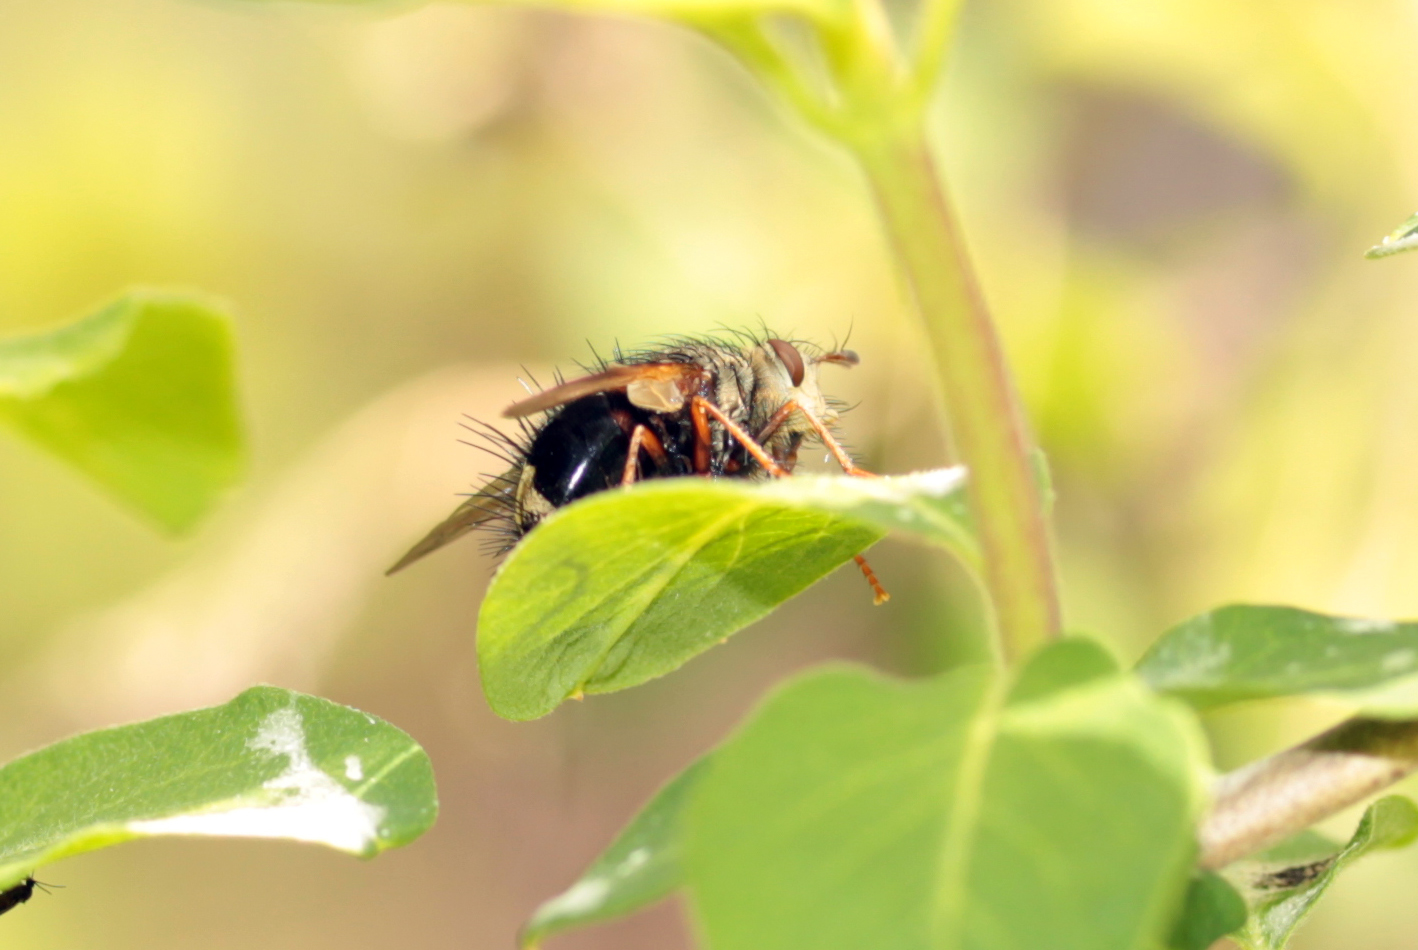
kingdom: Animalia
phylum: Arthropoda
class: Insecta
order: Diptera
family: Tachinidae
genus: Epalpus
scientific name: Epalpus signifer
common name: Early tachinid fly
